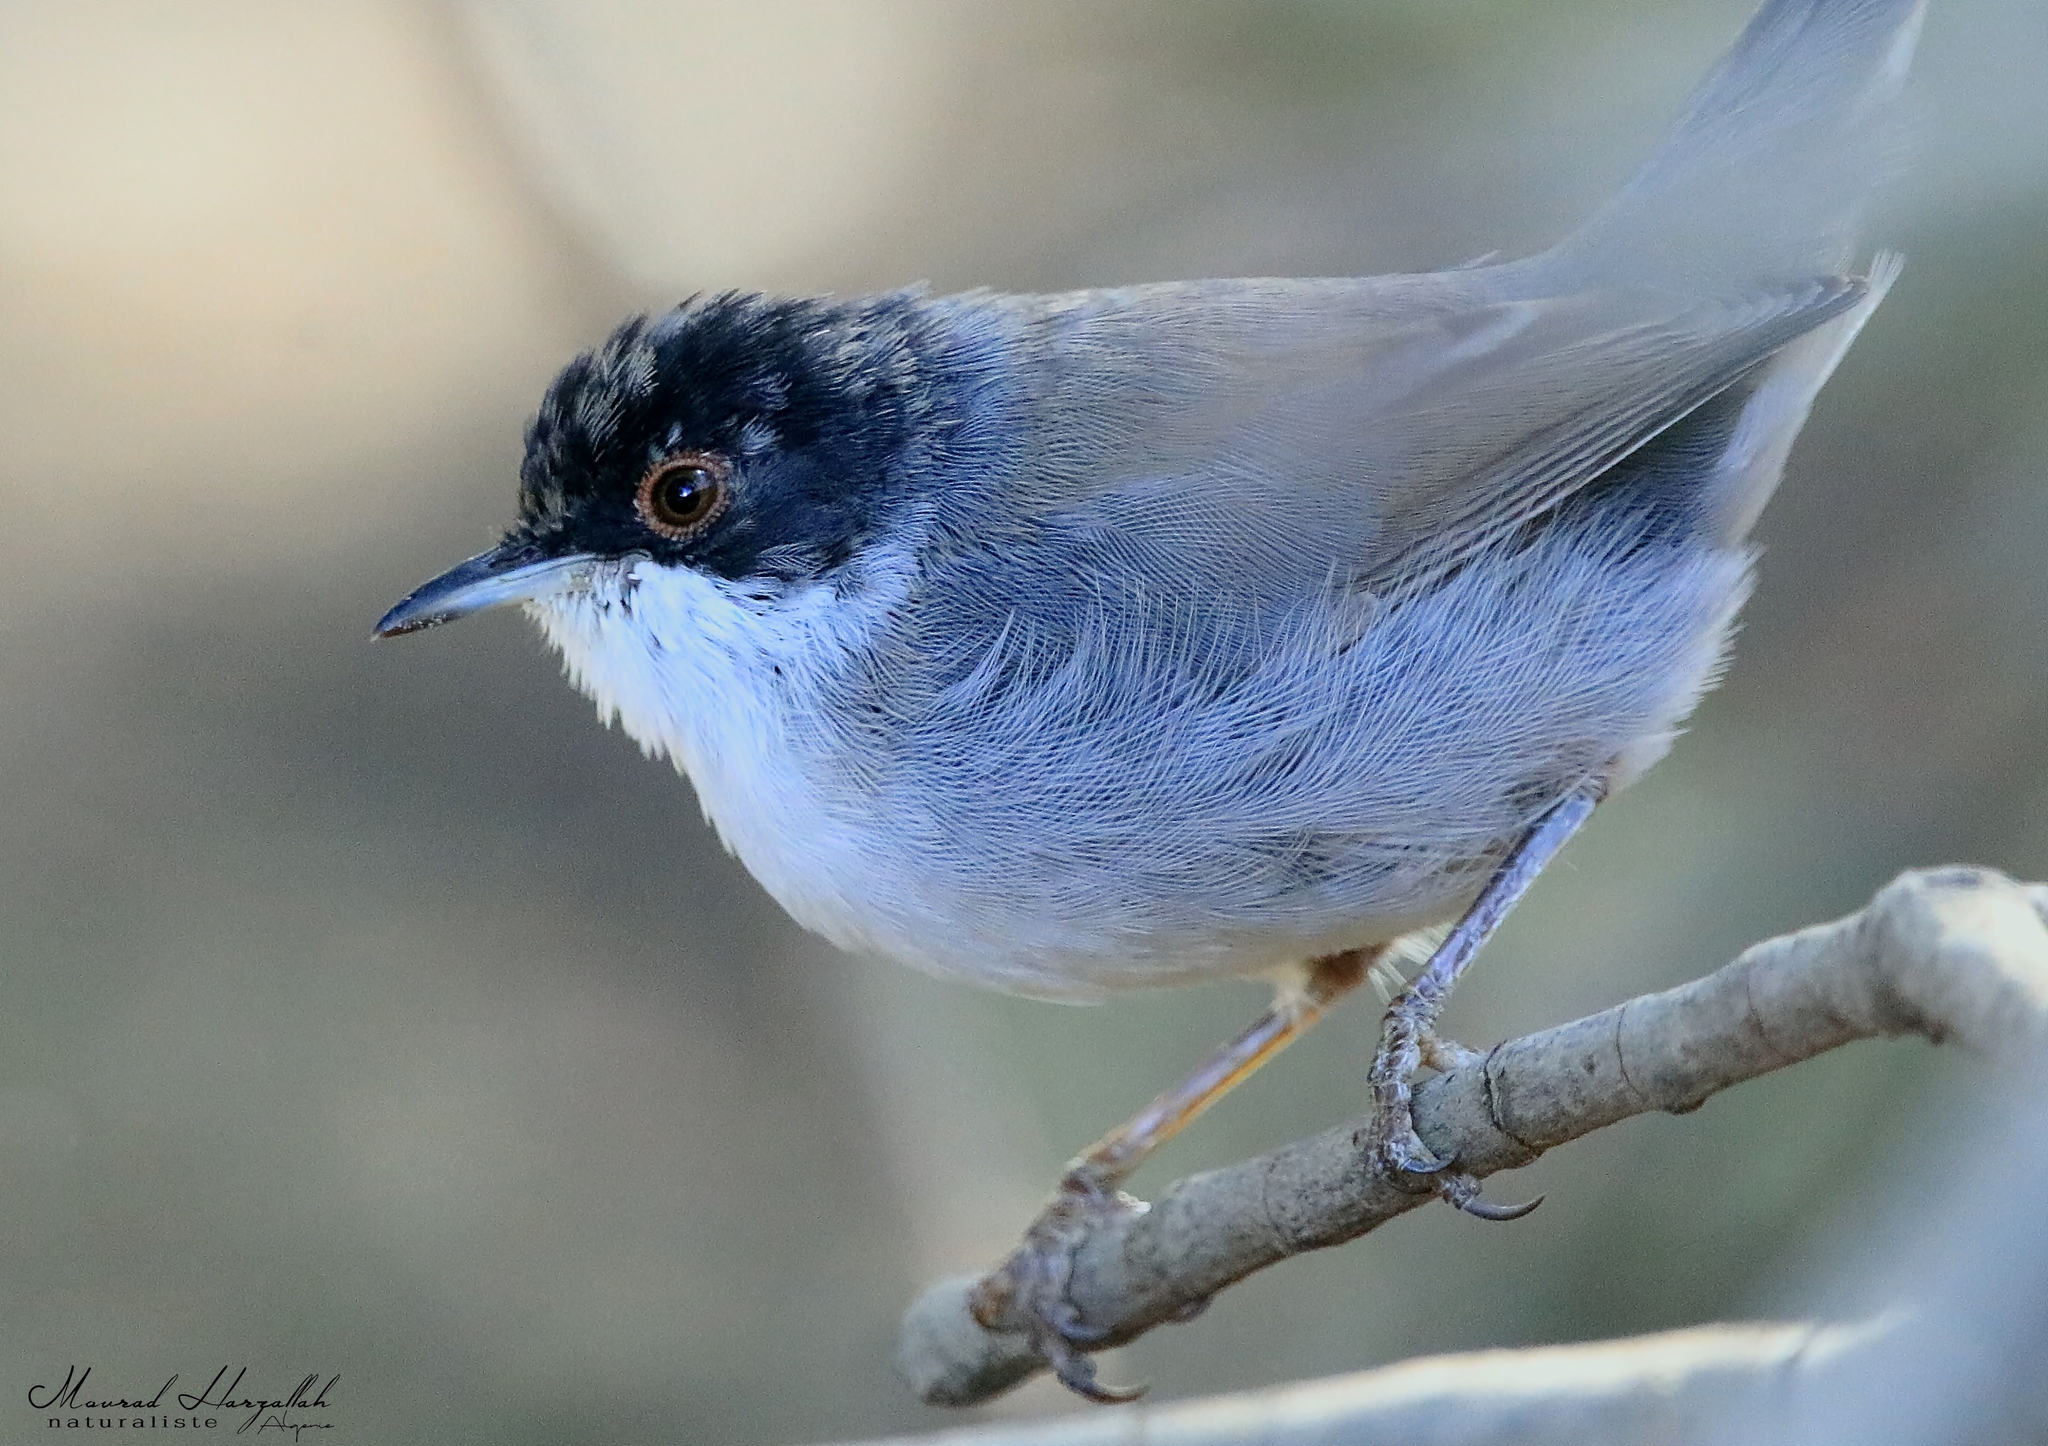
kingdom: Animalia
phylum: Chordata
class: Aves
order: Passeriformes
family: Sylviidae
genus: Curruca
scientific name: Curruca melanocephala
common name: Sardinian warbler
